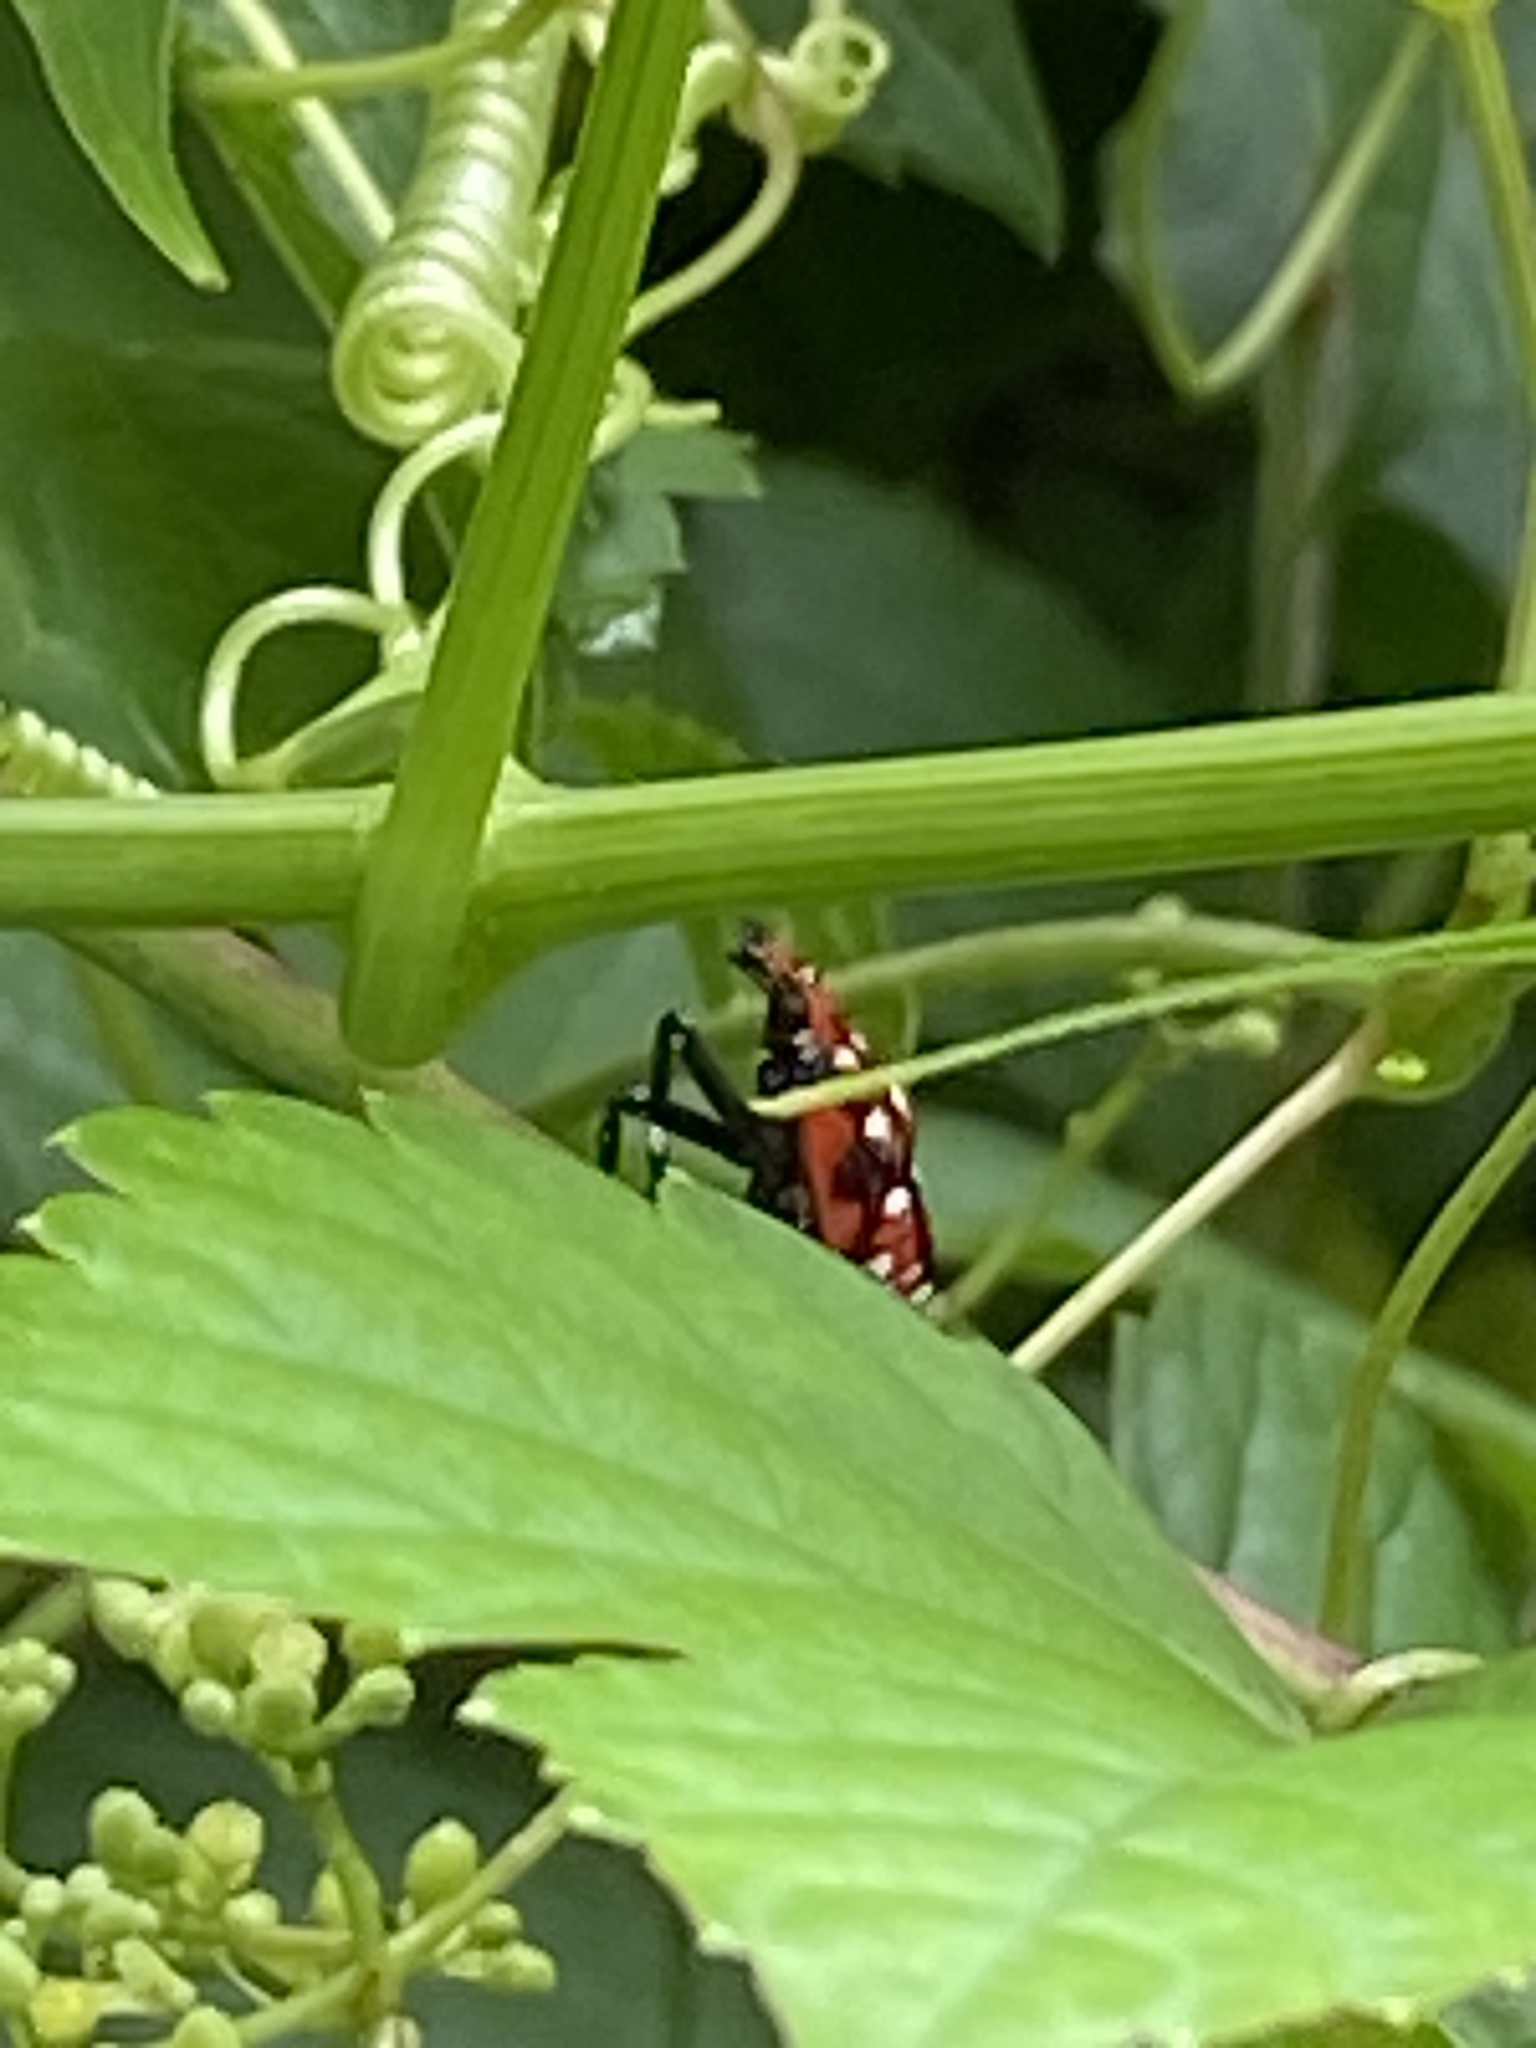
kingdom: Animalia
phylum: Arthropoda
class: Insecta
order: Hemiptera
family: Fulgoridae
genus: Lycorma
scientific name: Lycorma delicatula
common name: Spotted lanternfly
